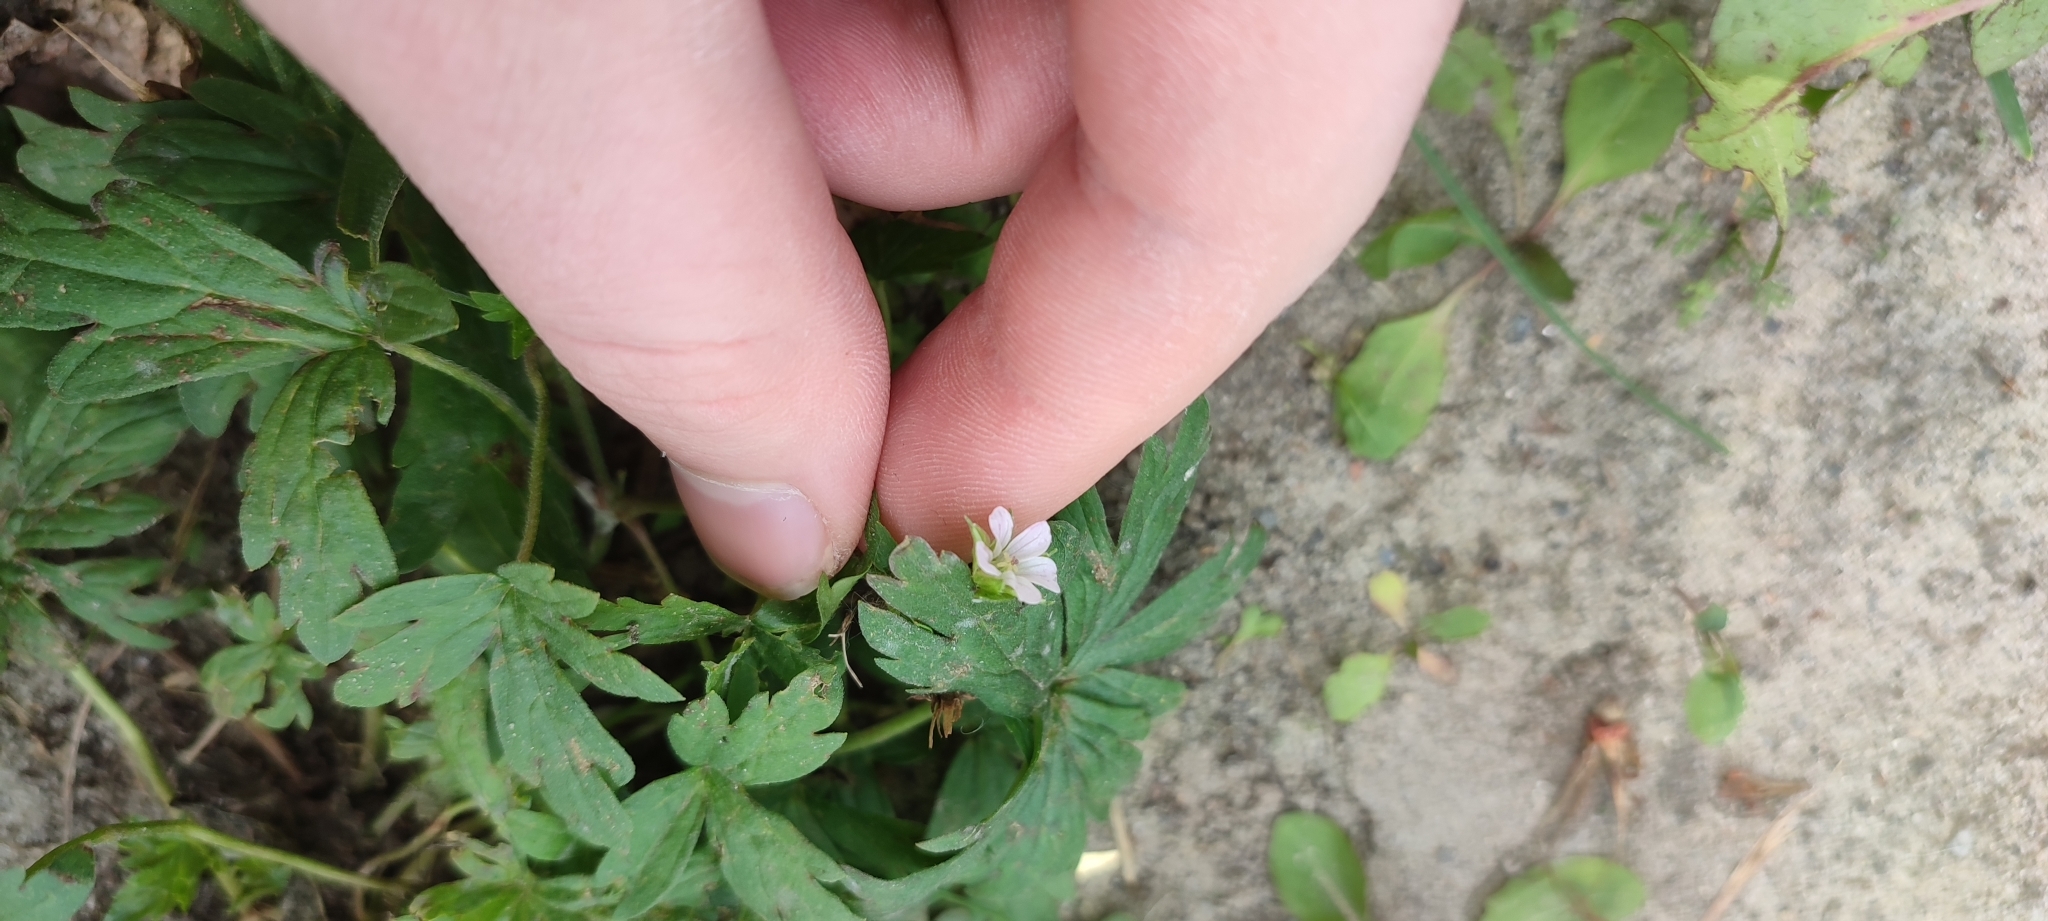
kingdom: Plantae
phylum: Tracheophyta
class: Magnoliopsida
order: Geraniales
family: Geraniaceae
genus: Geranium
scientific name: Geranium sibiricum
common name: Siberian crane's-bill
